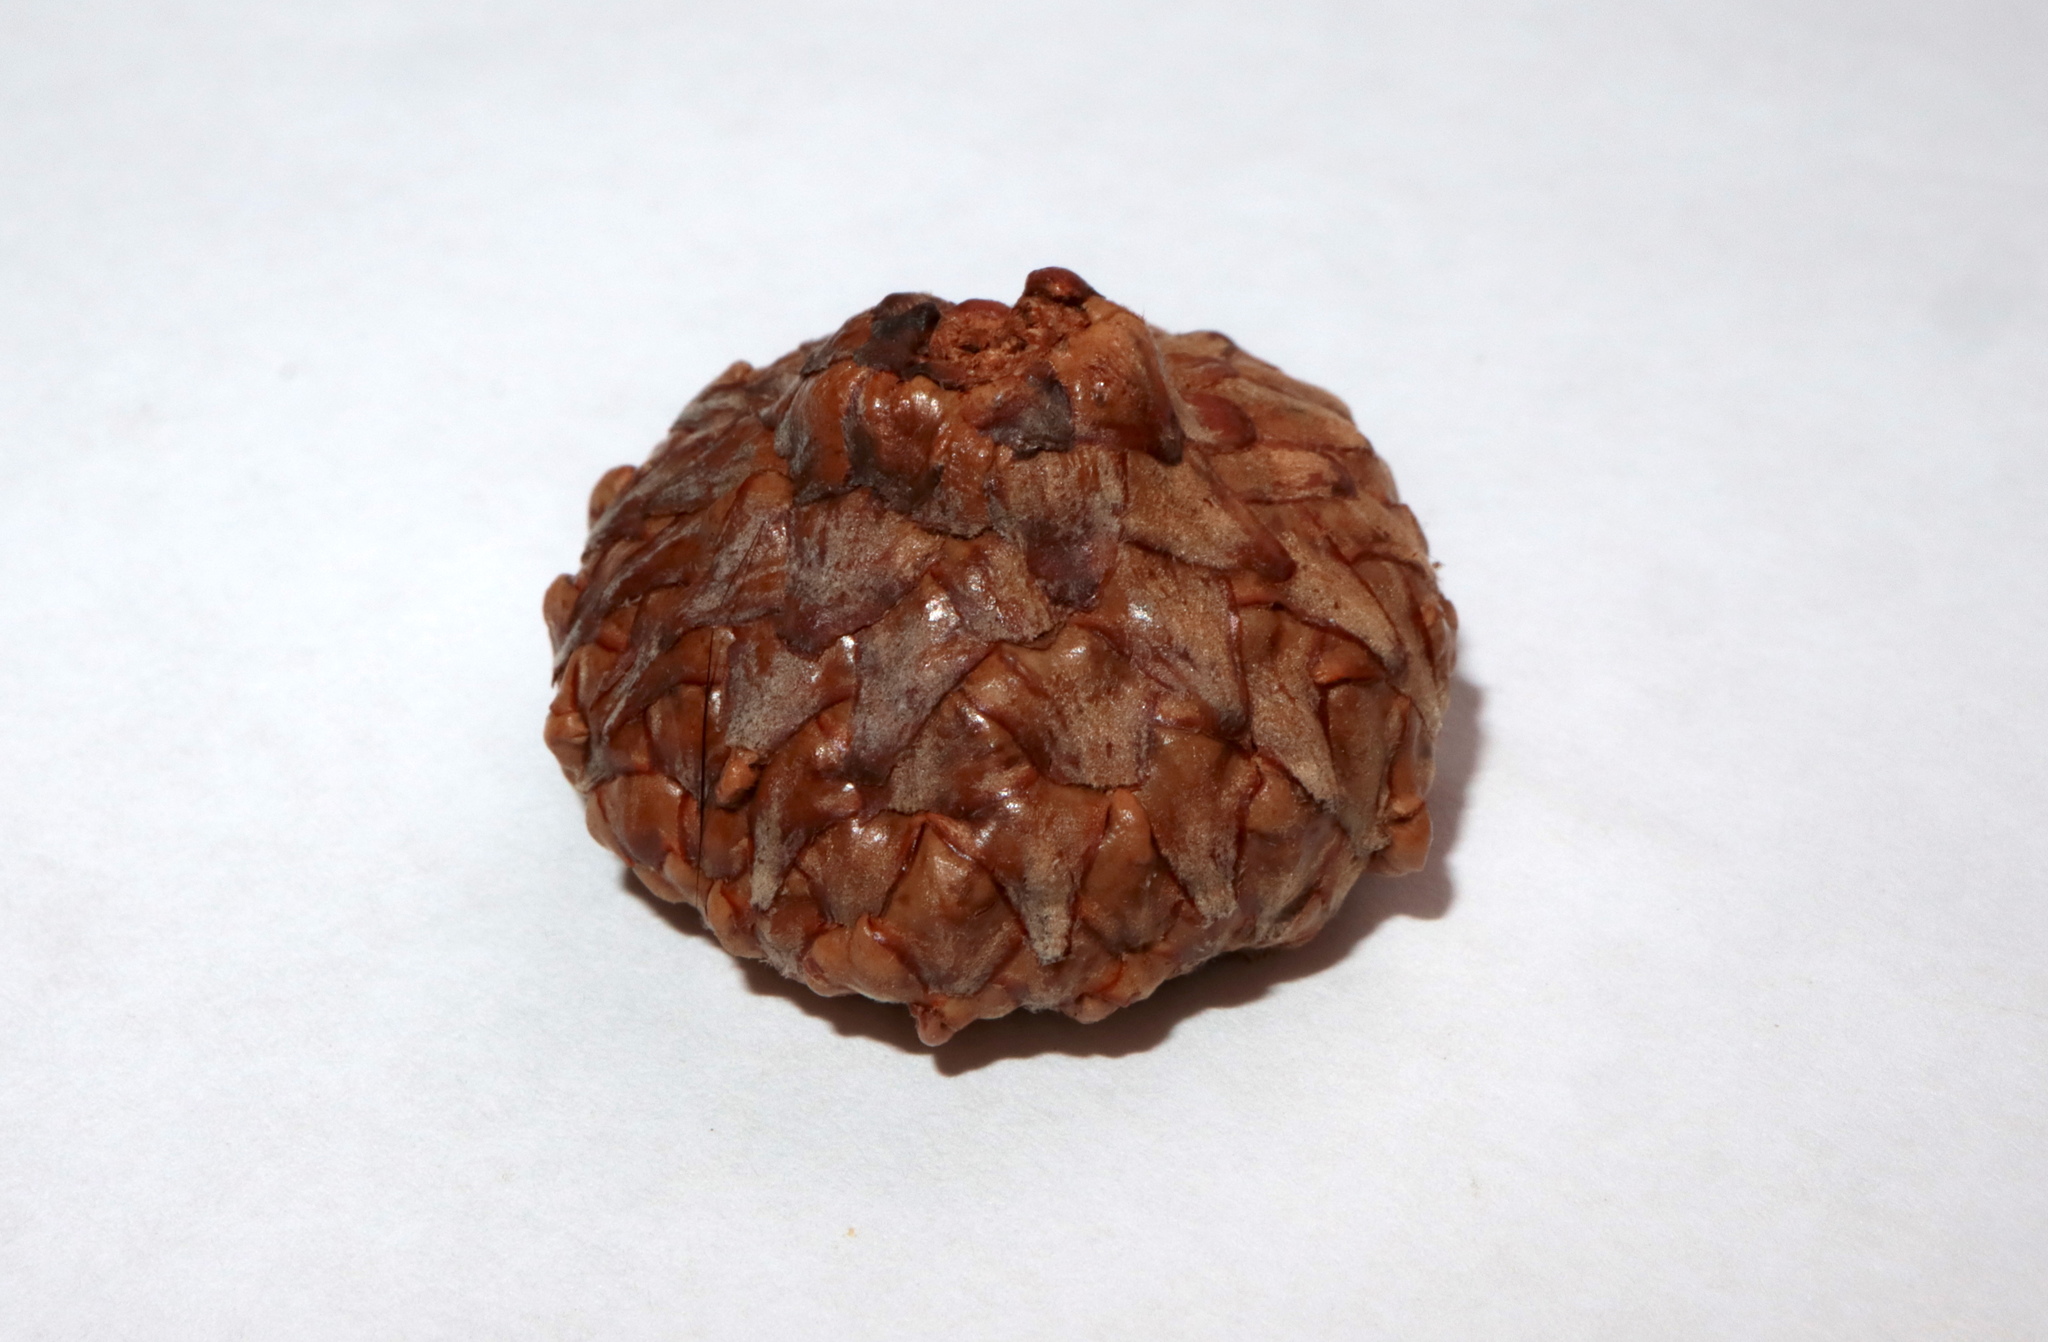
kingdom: Plantae
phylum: Tracheophyta
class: Magnoliopsida
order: Fagales
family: Fagaceae
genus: Quercus
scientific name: Quercus coccinea
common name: Scarlet oak
